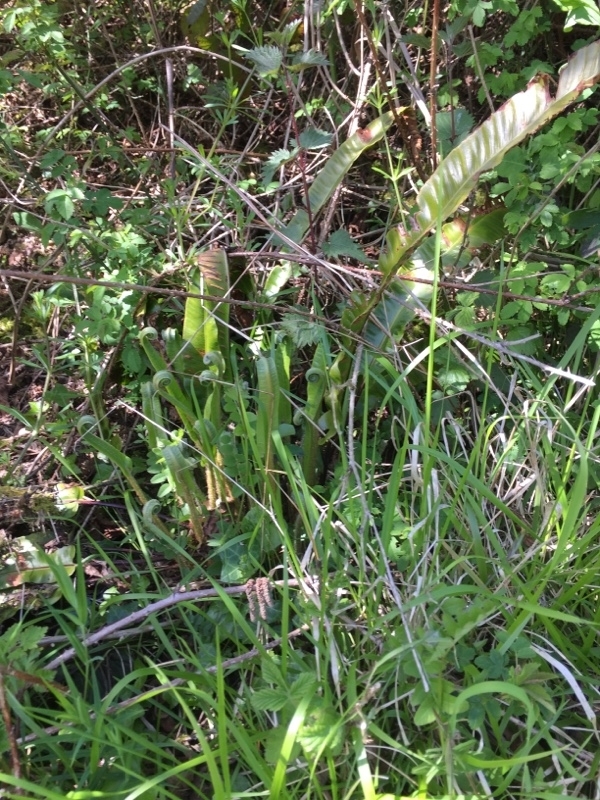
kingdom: Plantae
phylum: Tracheophyta
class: Polypodiopsida
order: Polypodiales
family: Aspleniaceae
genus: Asplenium
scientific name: Asplenium scolopendrium
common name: Hart's-tongue fern
